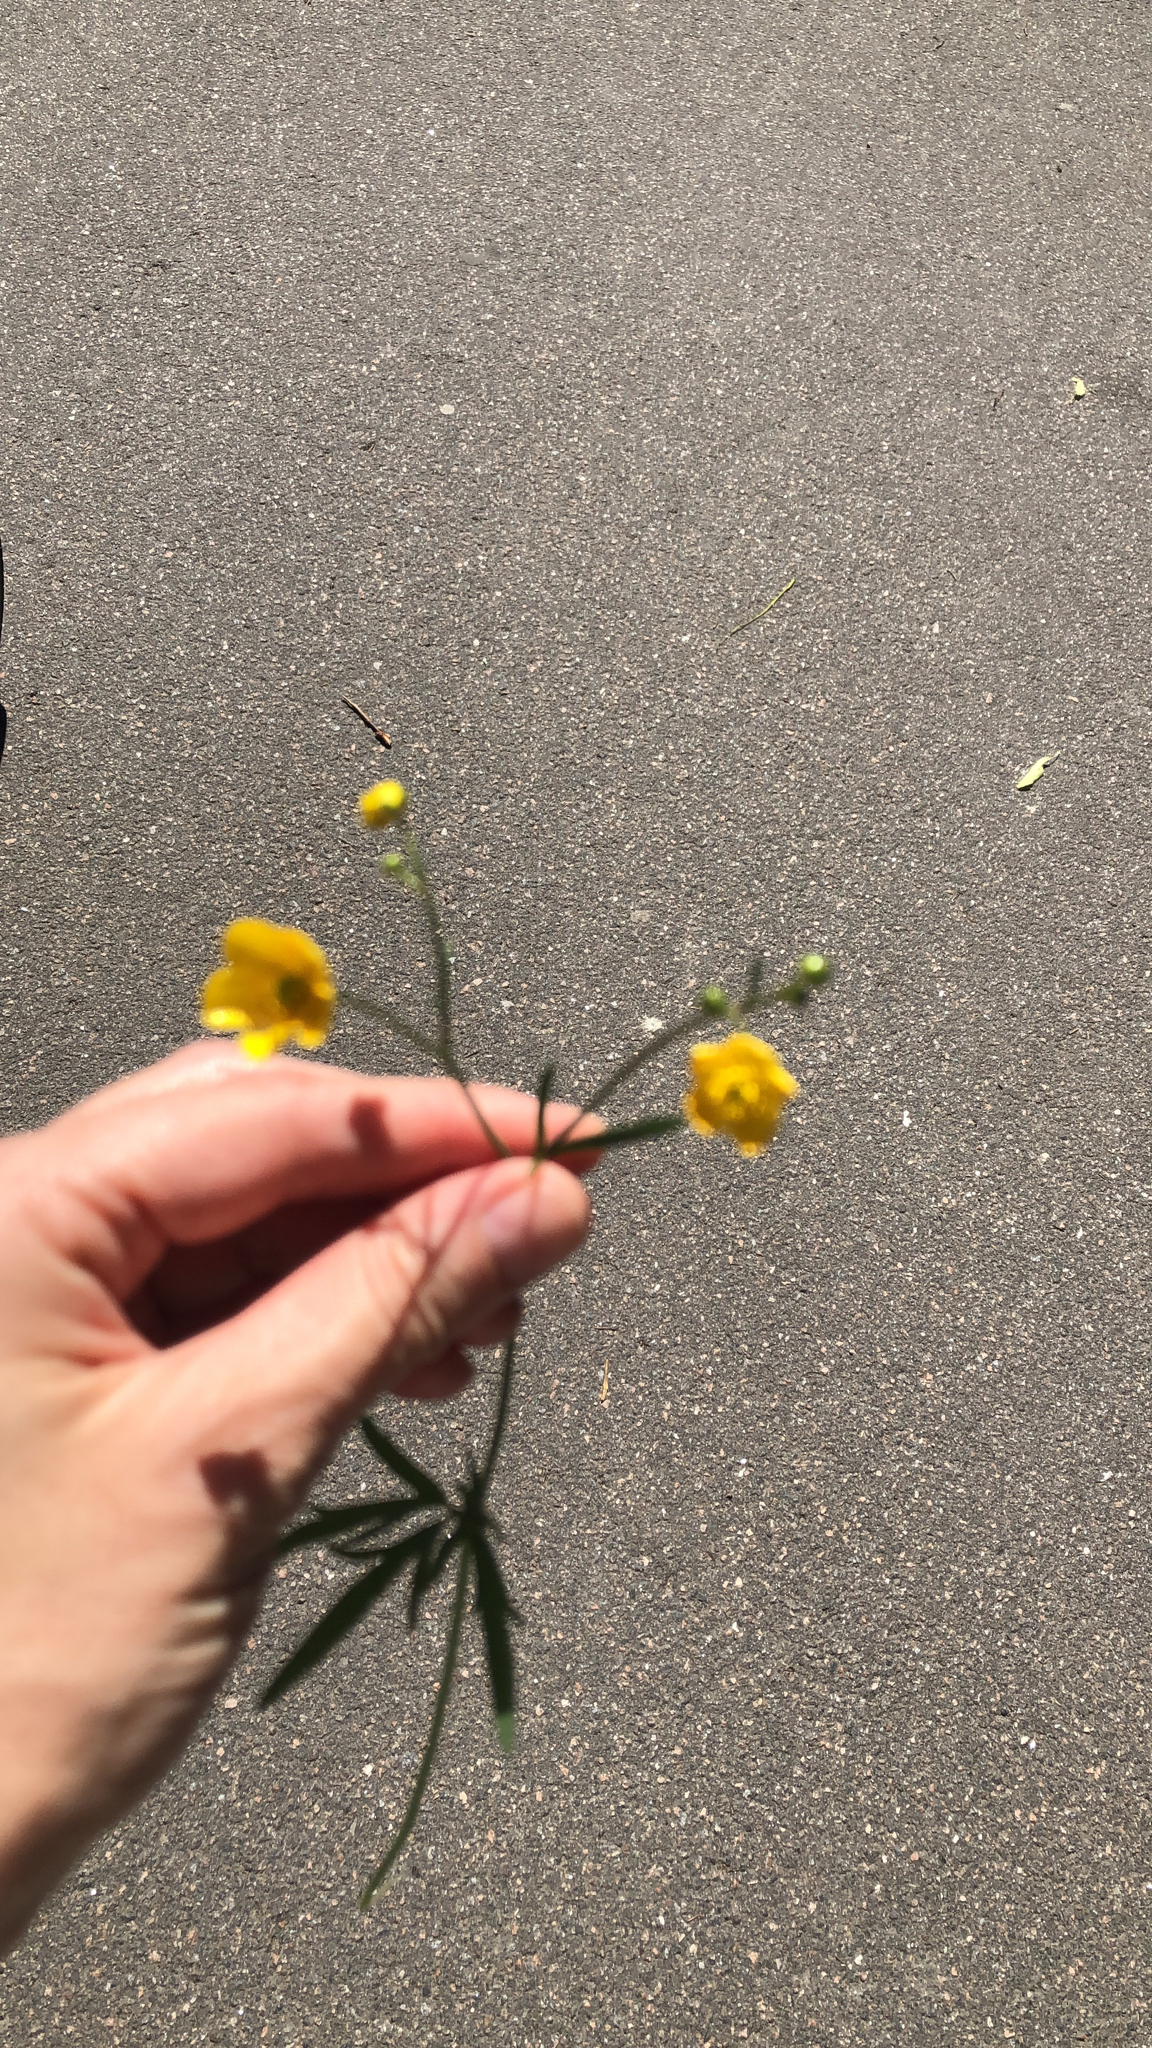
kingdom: Plantae
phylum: Tracheophyta
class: Magnoliopsida
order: Ranunculales
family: Ranunculaceae
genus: Ranunculus
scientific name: Ranunculus acris
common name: Meadow buttercup
